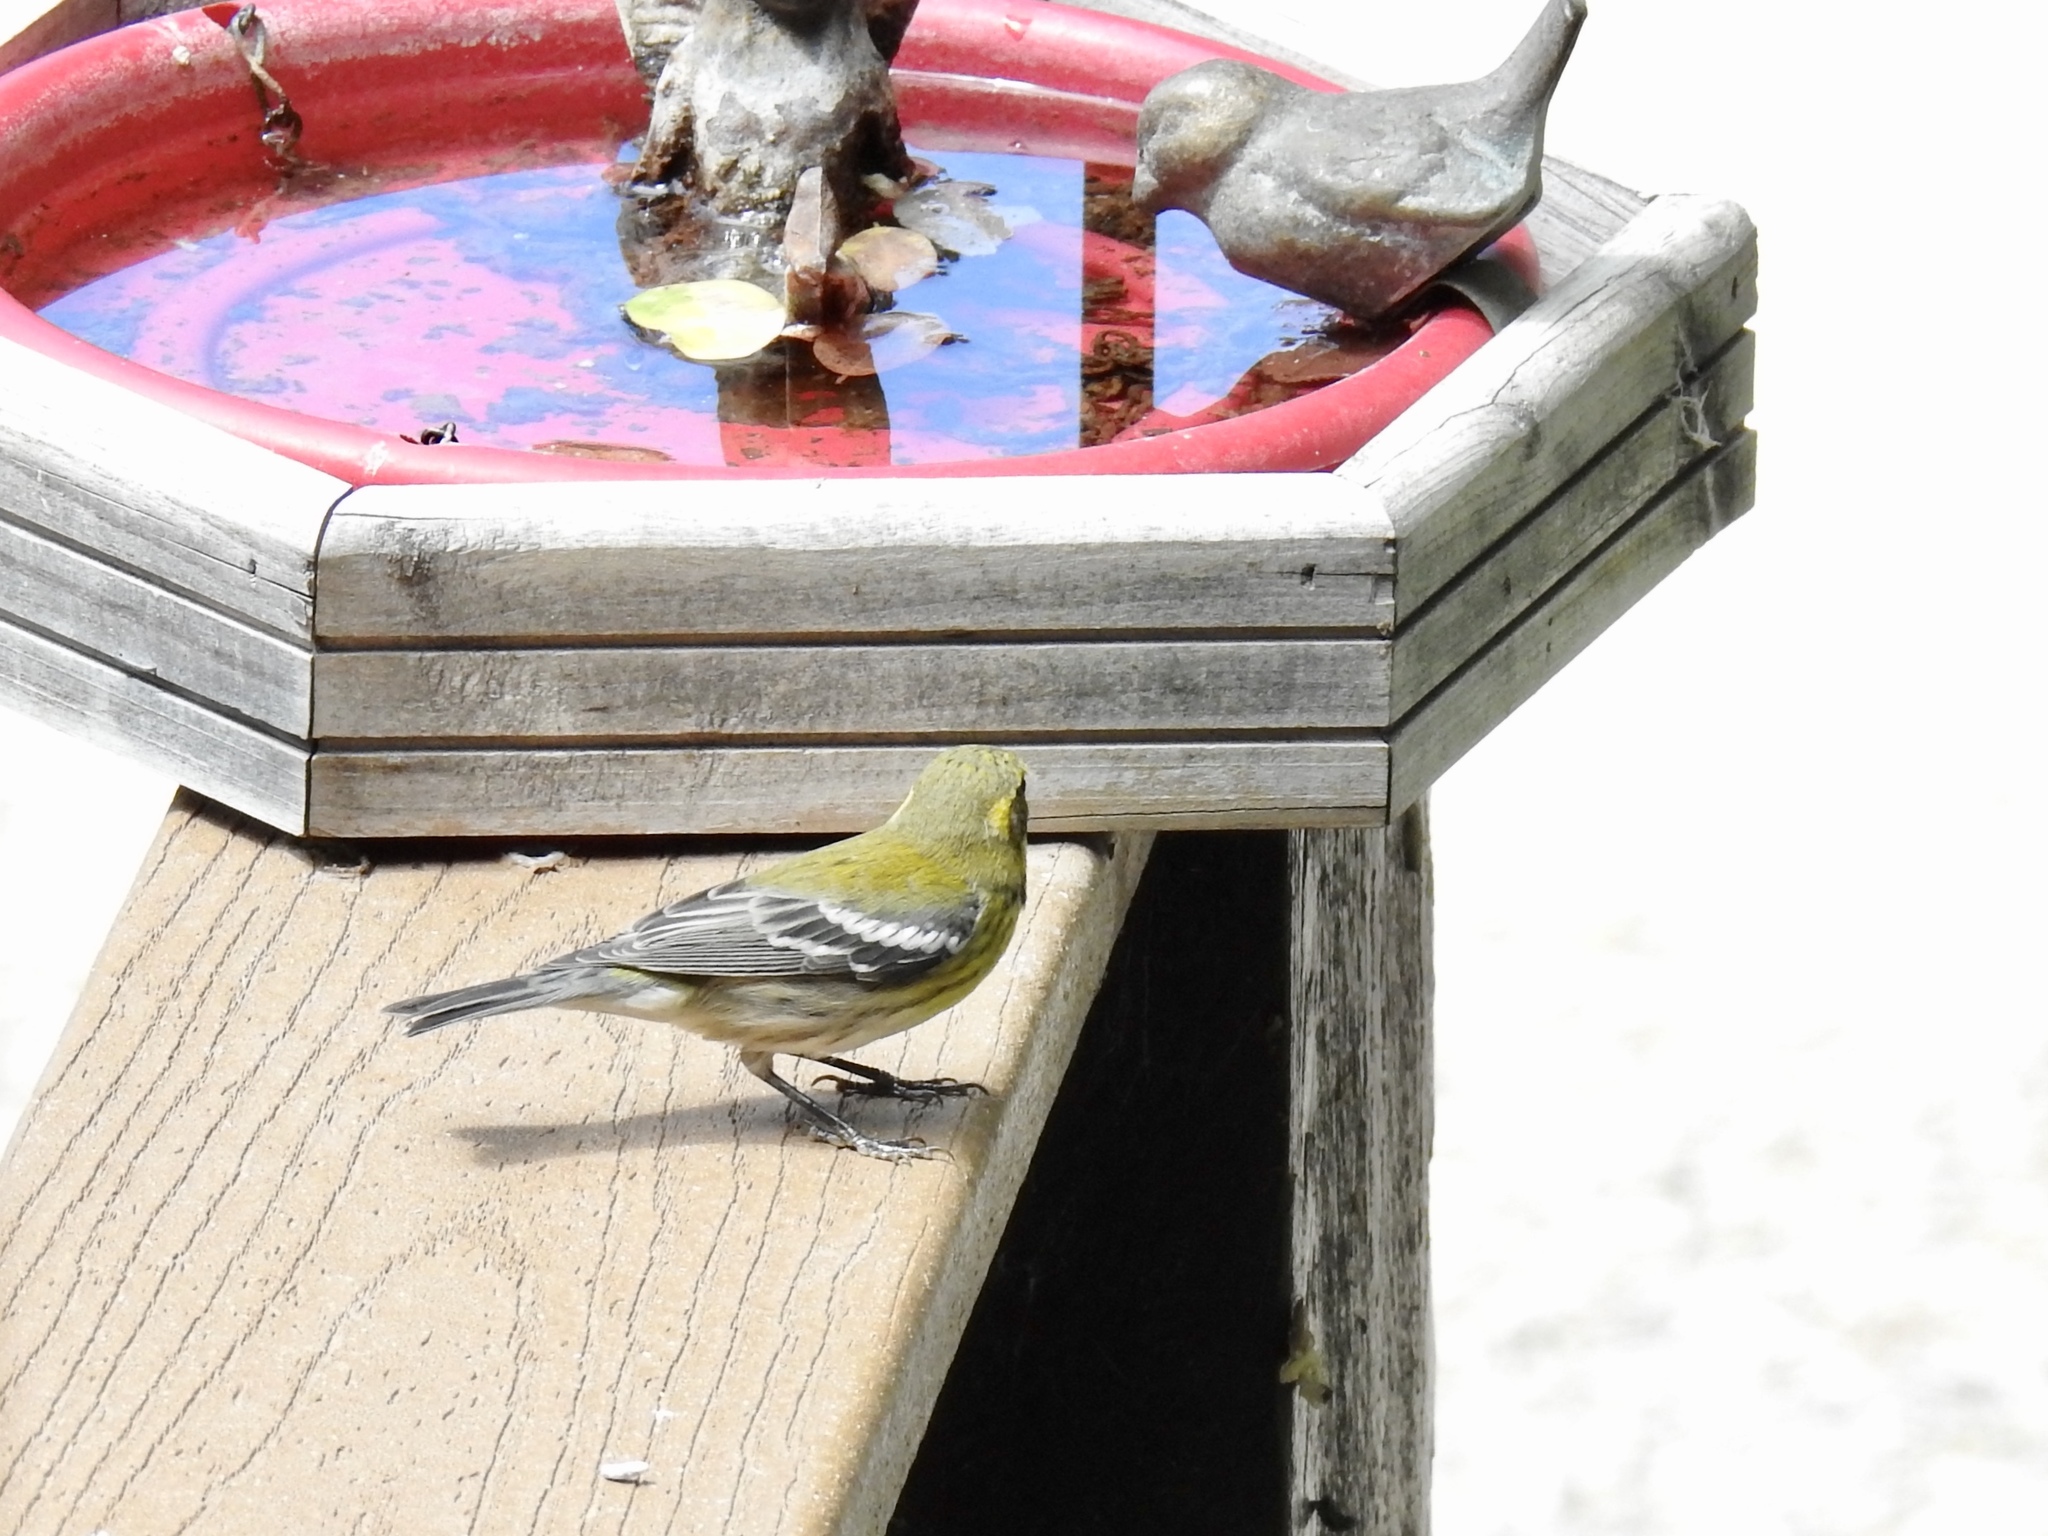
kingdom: Animalia
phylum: Chordata
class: Aves
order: Passeriformes
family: Parulidae
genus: Setophaga
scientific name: Setophaga townsendi
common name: Townsend's warbler
